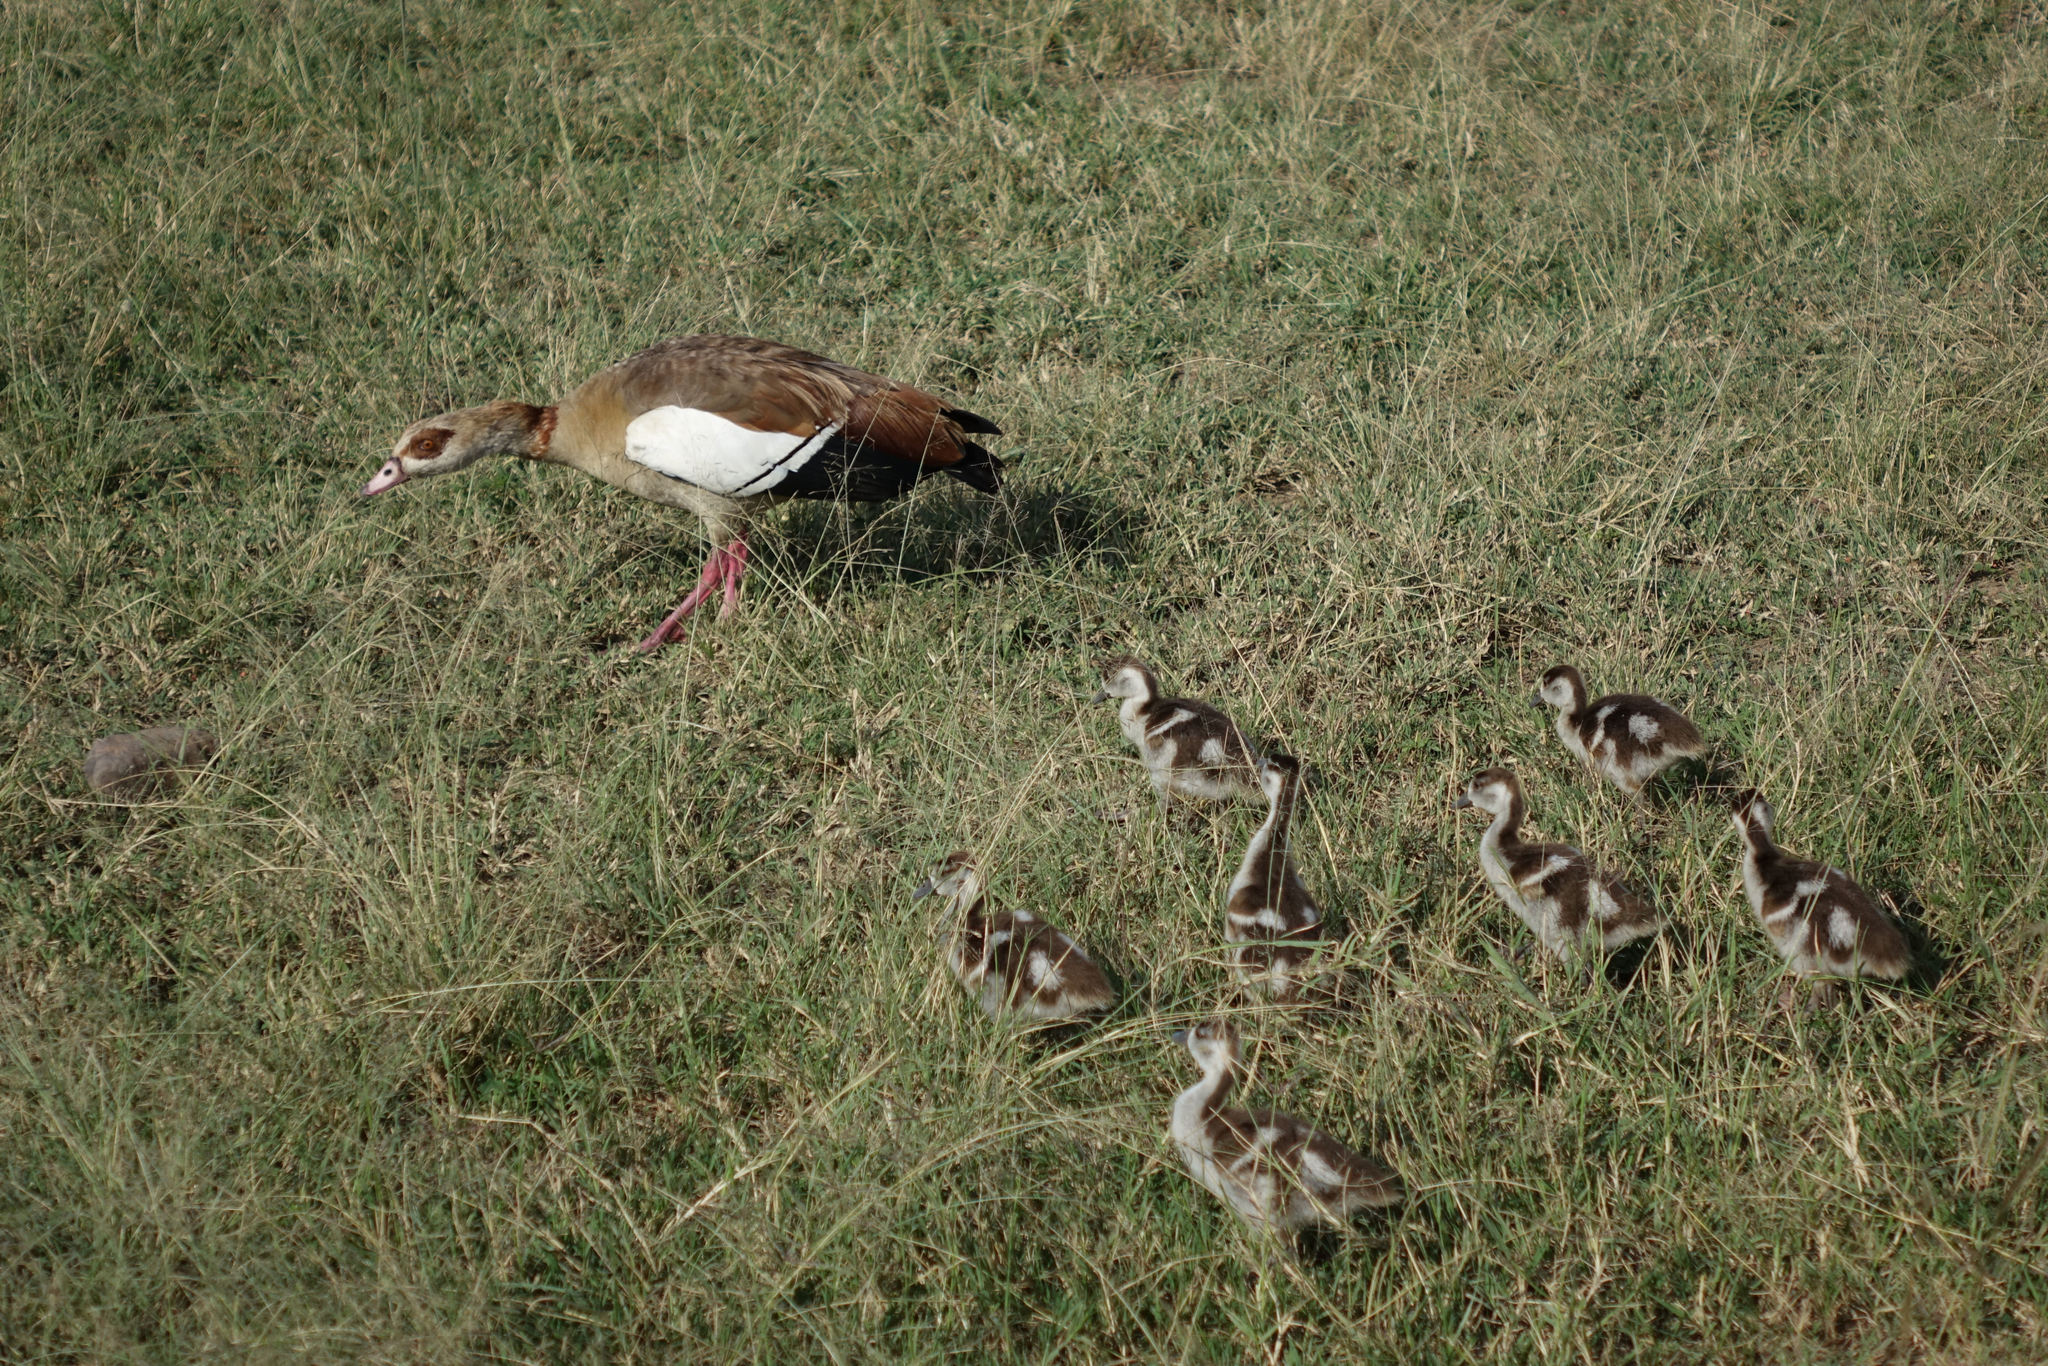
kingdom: Animalia
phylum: Chordata
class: Aves
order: Anseriformes
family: Anatidae
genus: Alopochen
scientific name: Alopochen aegyptiaca
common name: Egyptian goose
